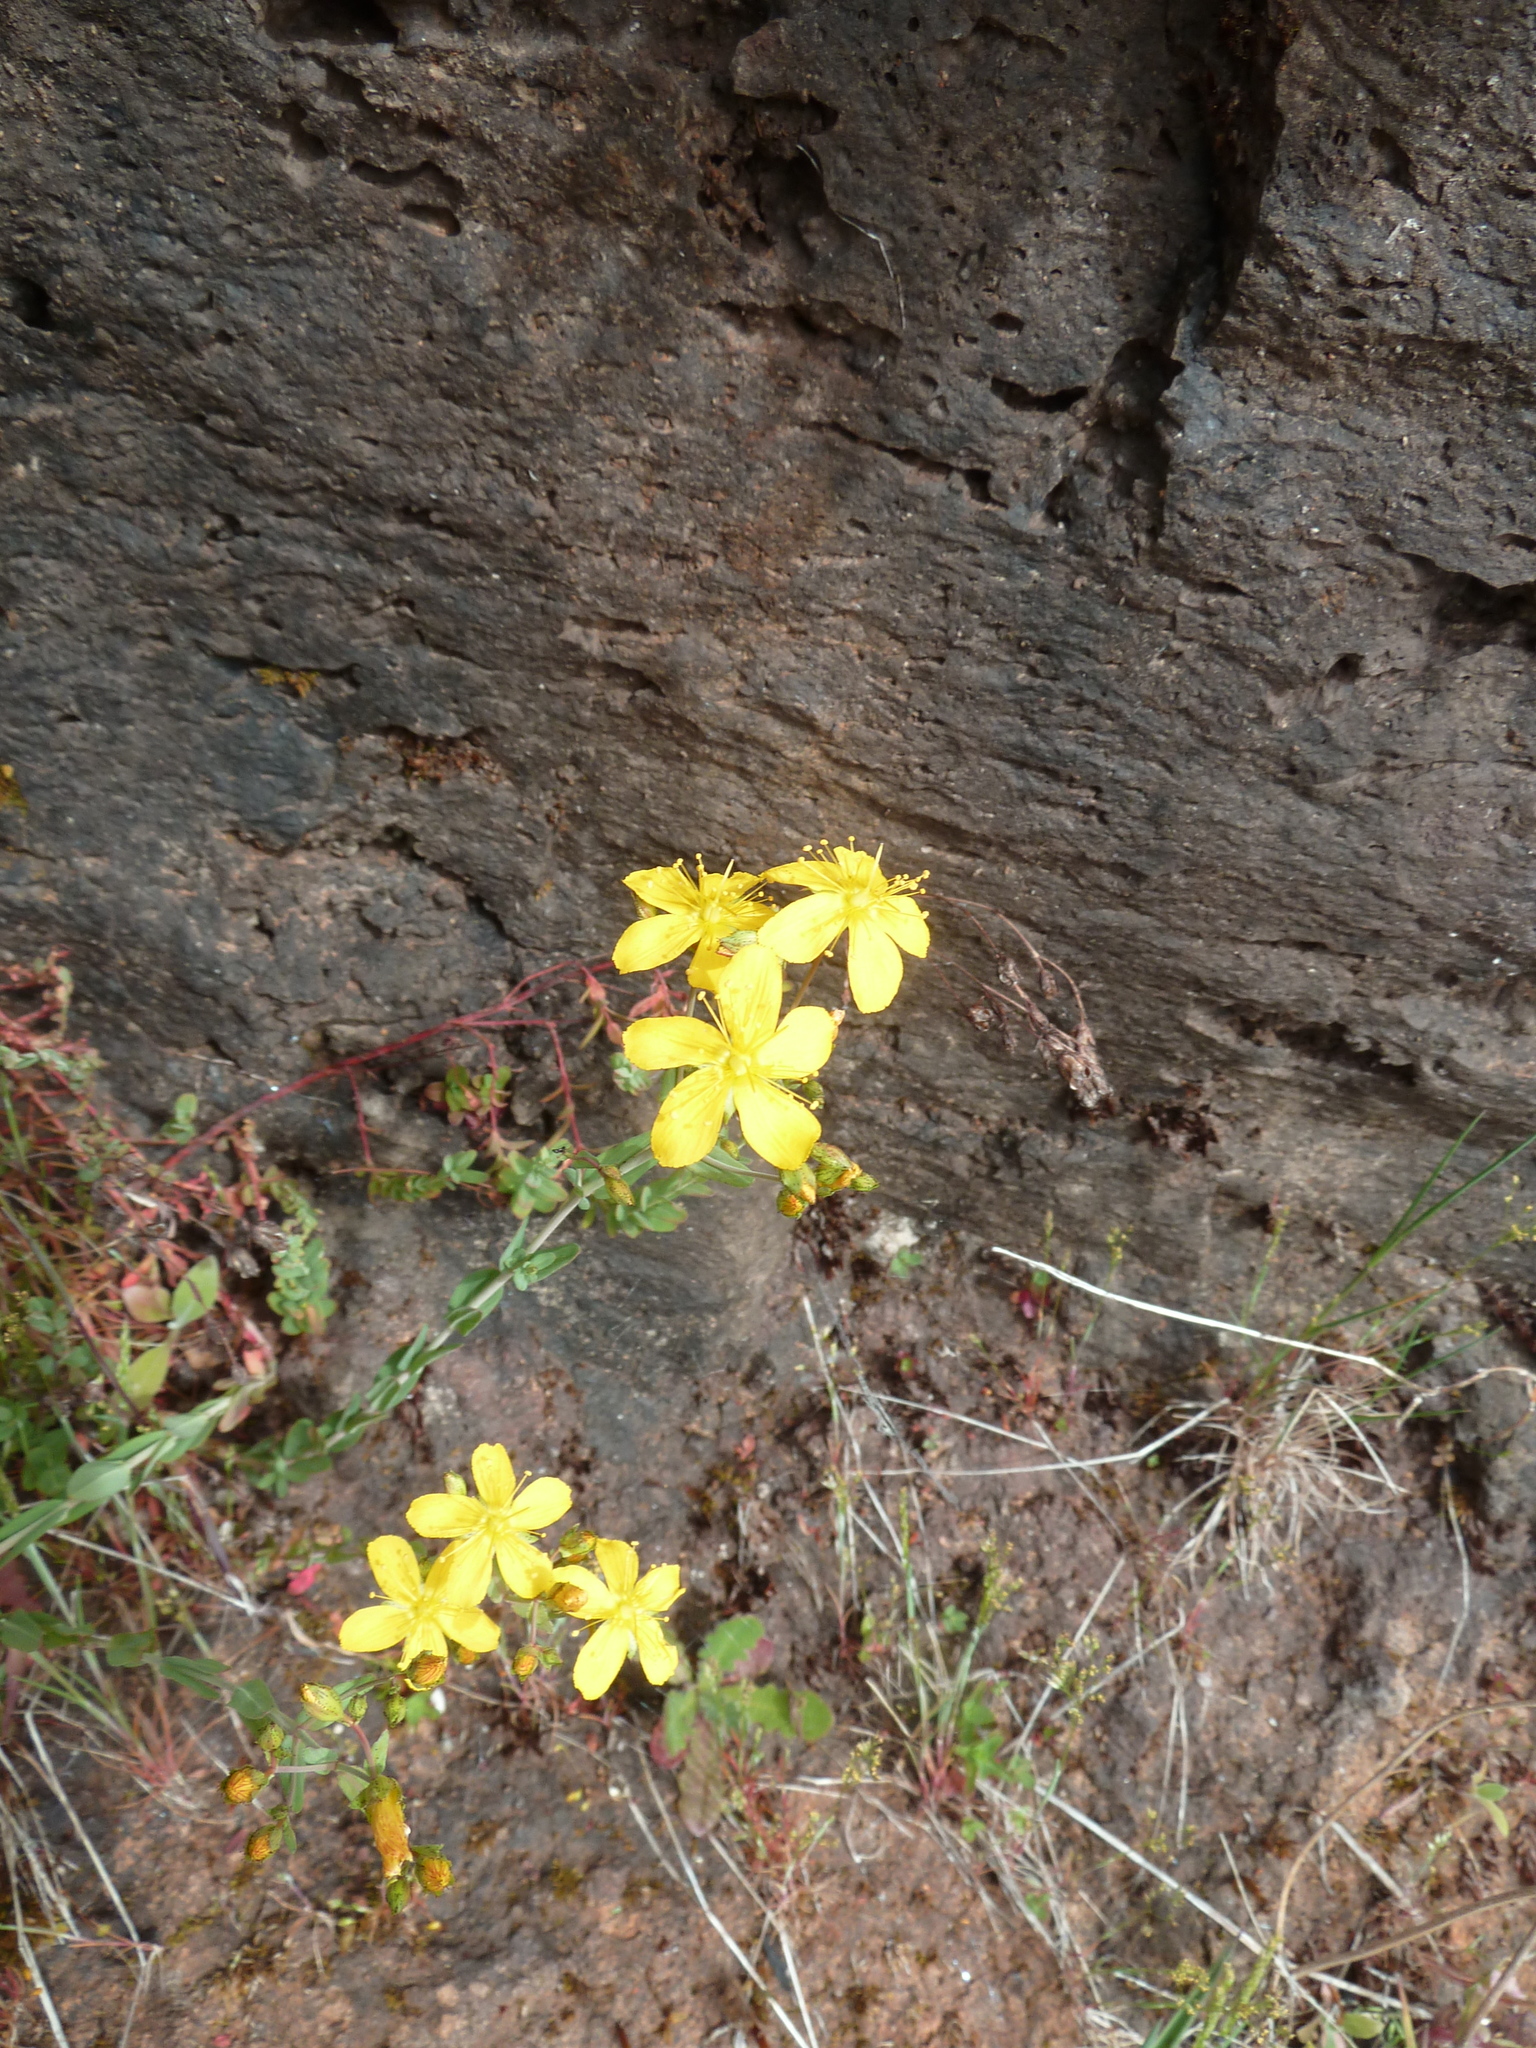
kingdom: Plantae
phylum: Tracheophyta
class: Magnoliopsida
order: Malpighiales
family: Hypericaceae
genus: Hypericum
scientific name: Hypericum linariifolium
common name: Toadflax-leaved st. john's-wort
